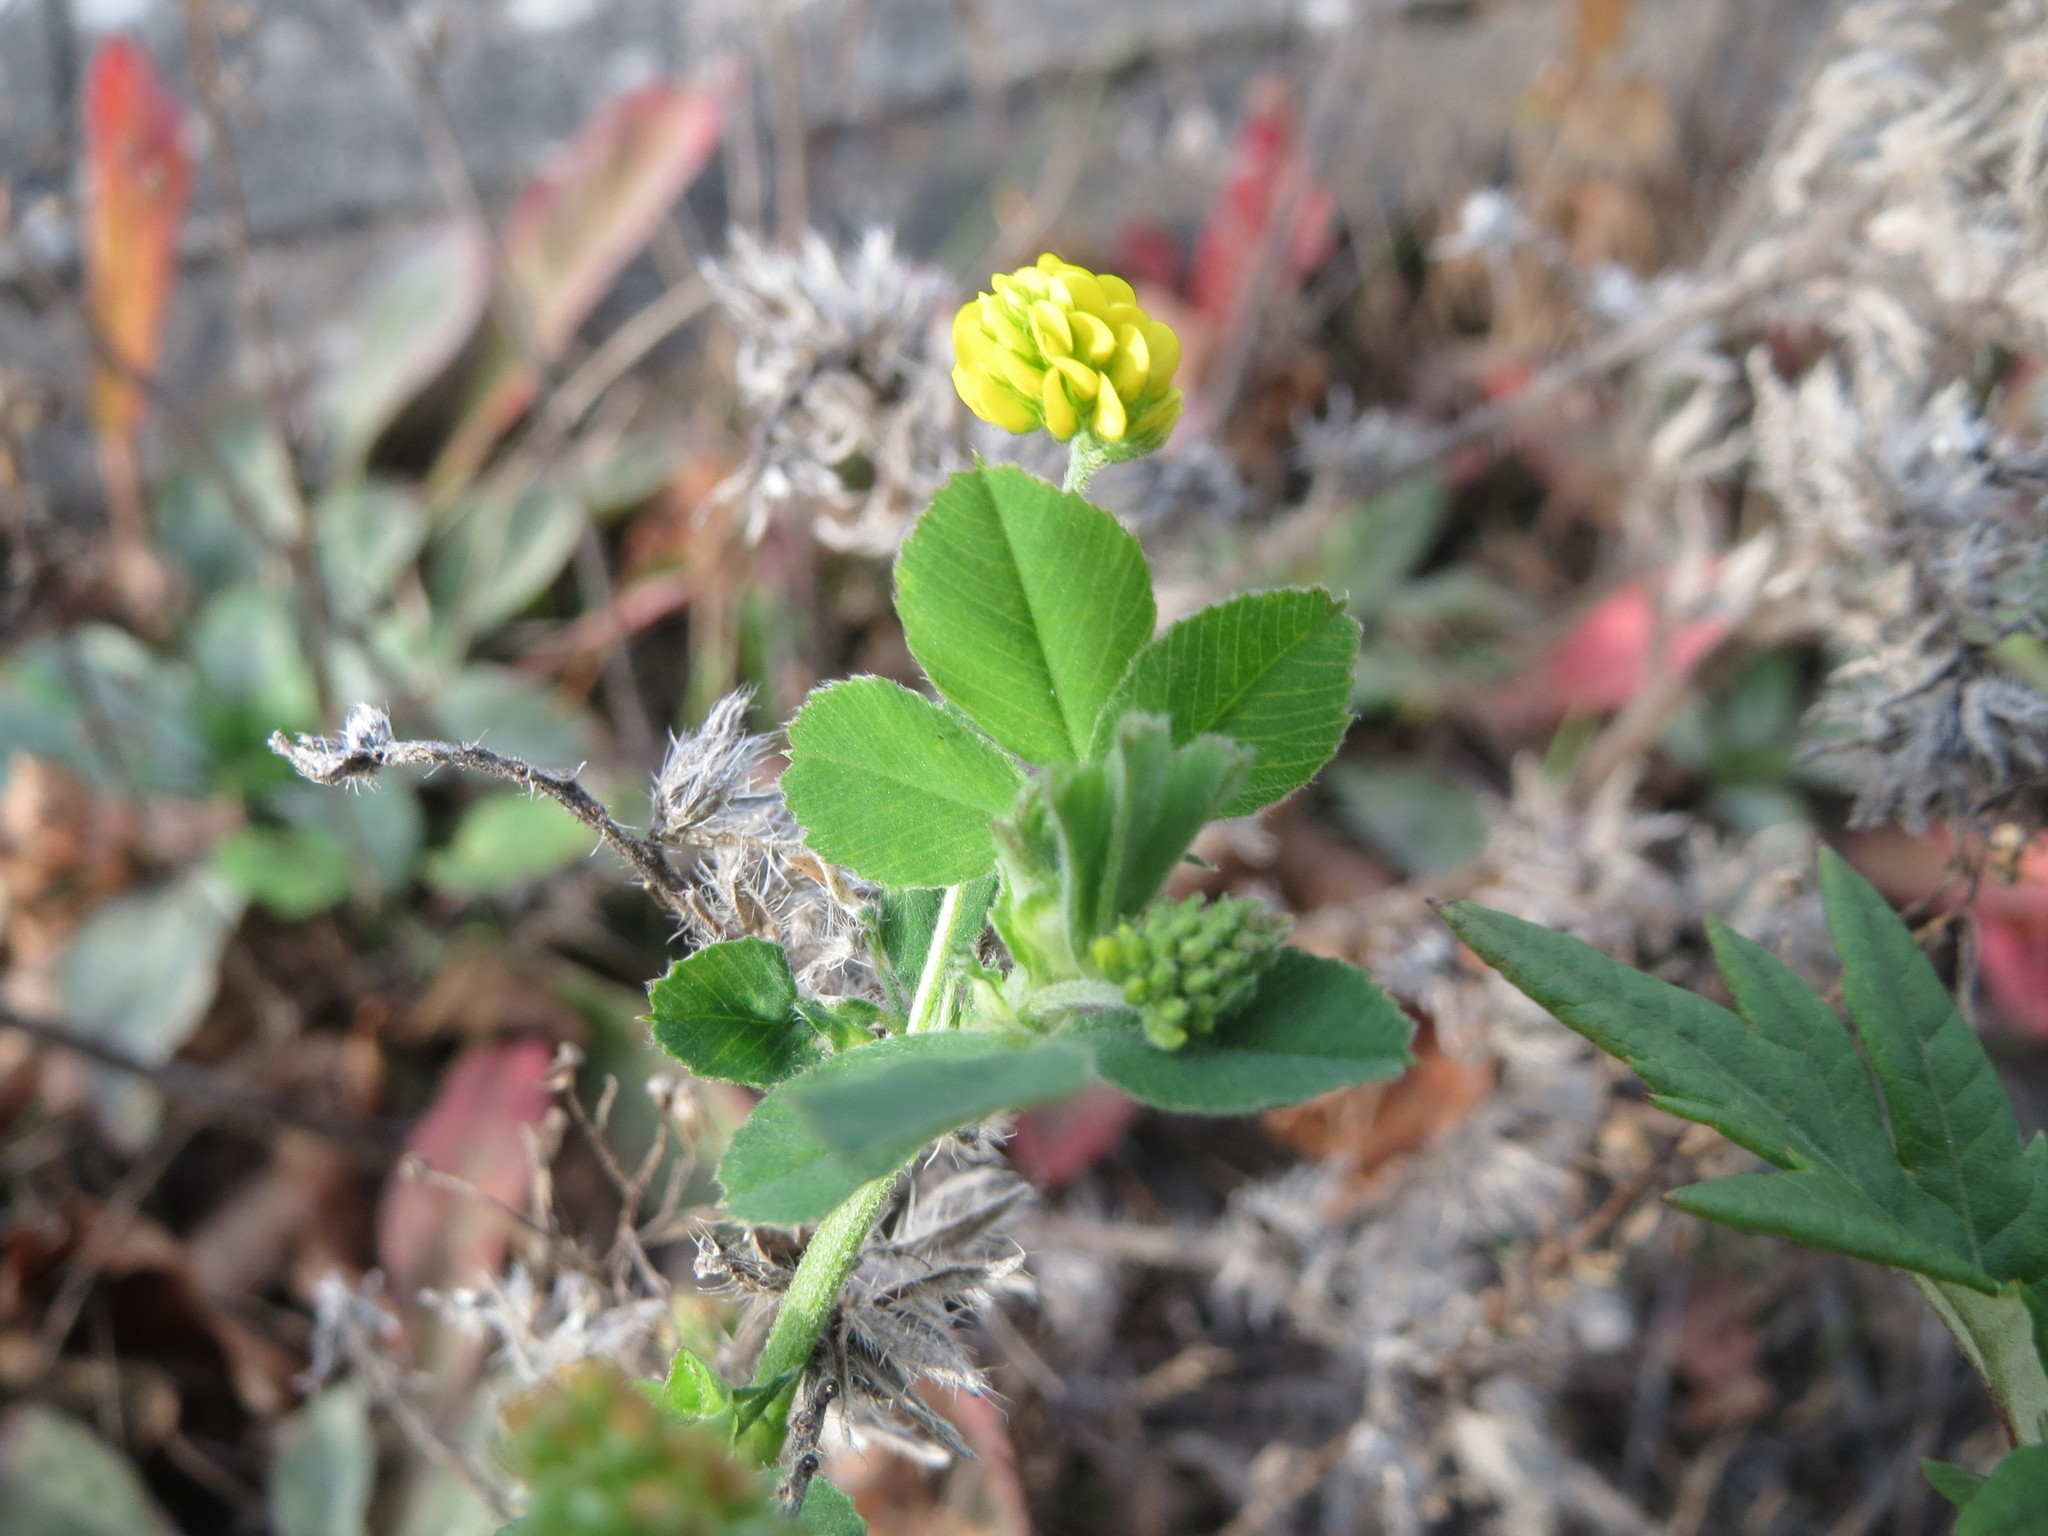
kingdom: Plantae
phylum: Tracheophyta
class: Magnoliopsida
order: Fabales
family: Fabaceae
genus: Medicago
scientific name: Medicago lupulina
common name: Black medick
